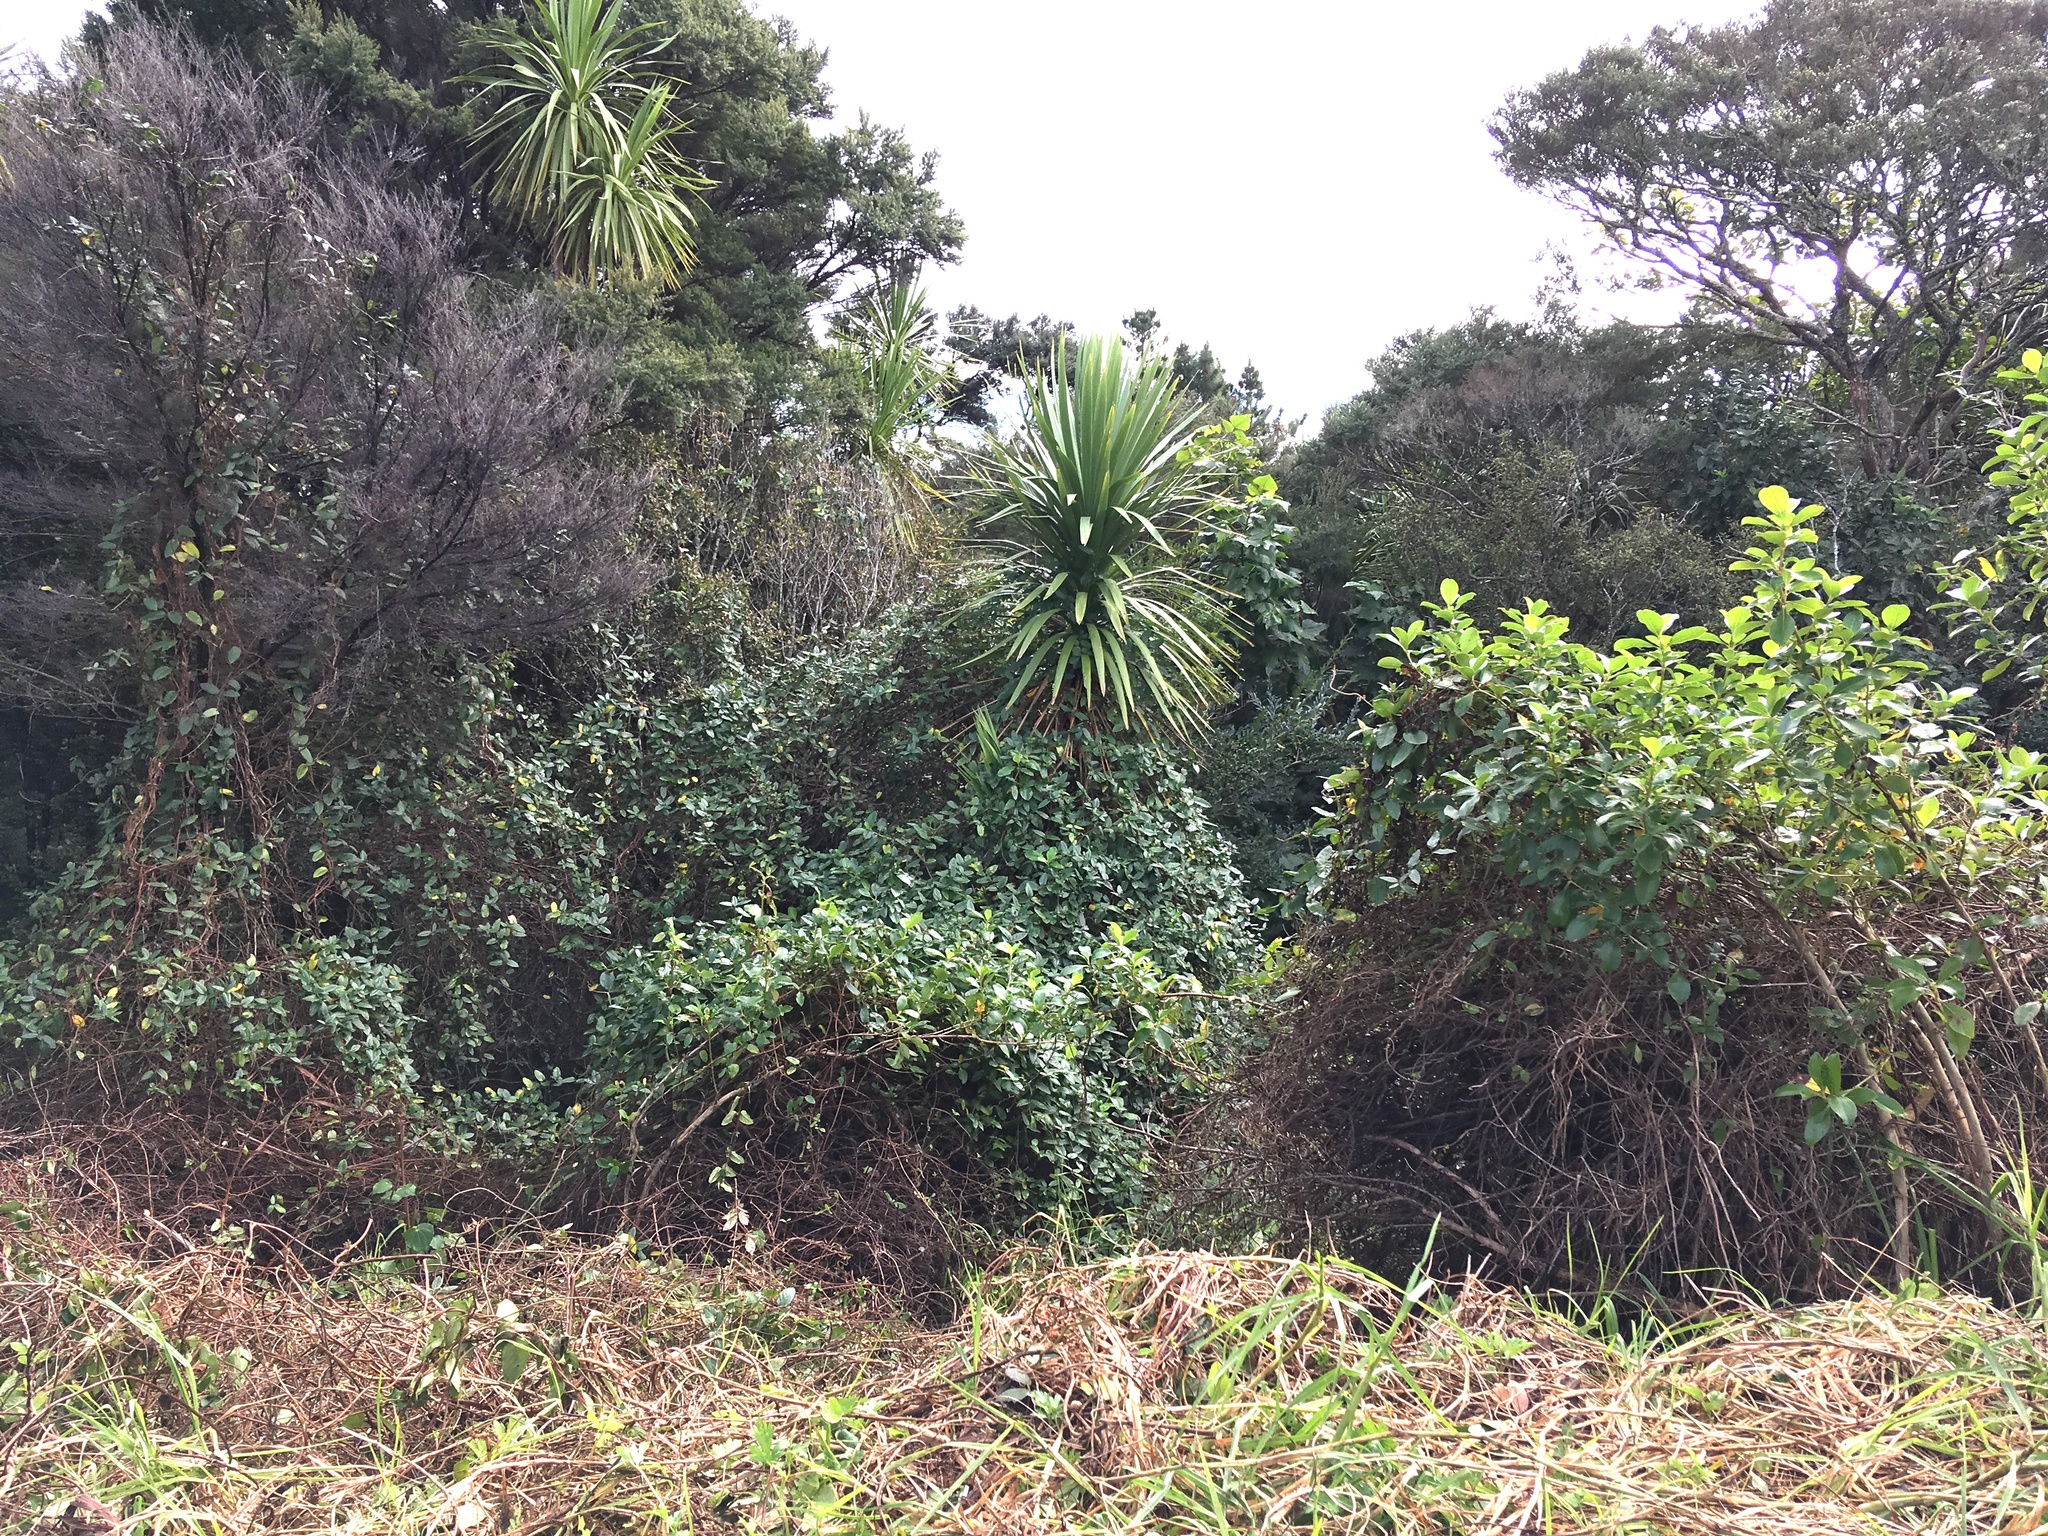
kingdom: Plantae
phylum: Tracheophyta
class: Liliopsida
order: Asparagales
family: Asparagaceae
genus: Cordyline
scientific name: Cordyline australis
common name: Cabbage-palm
